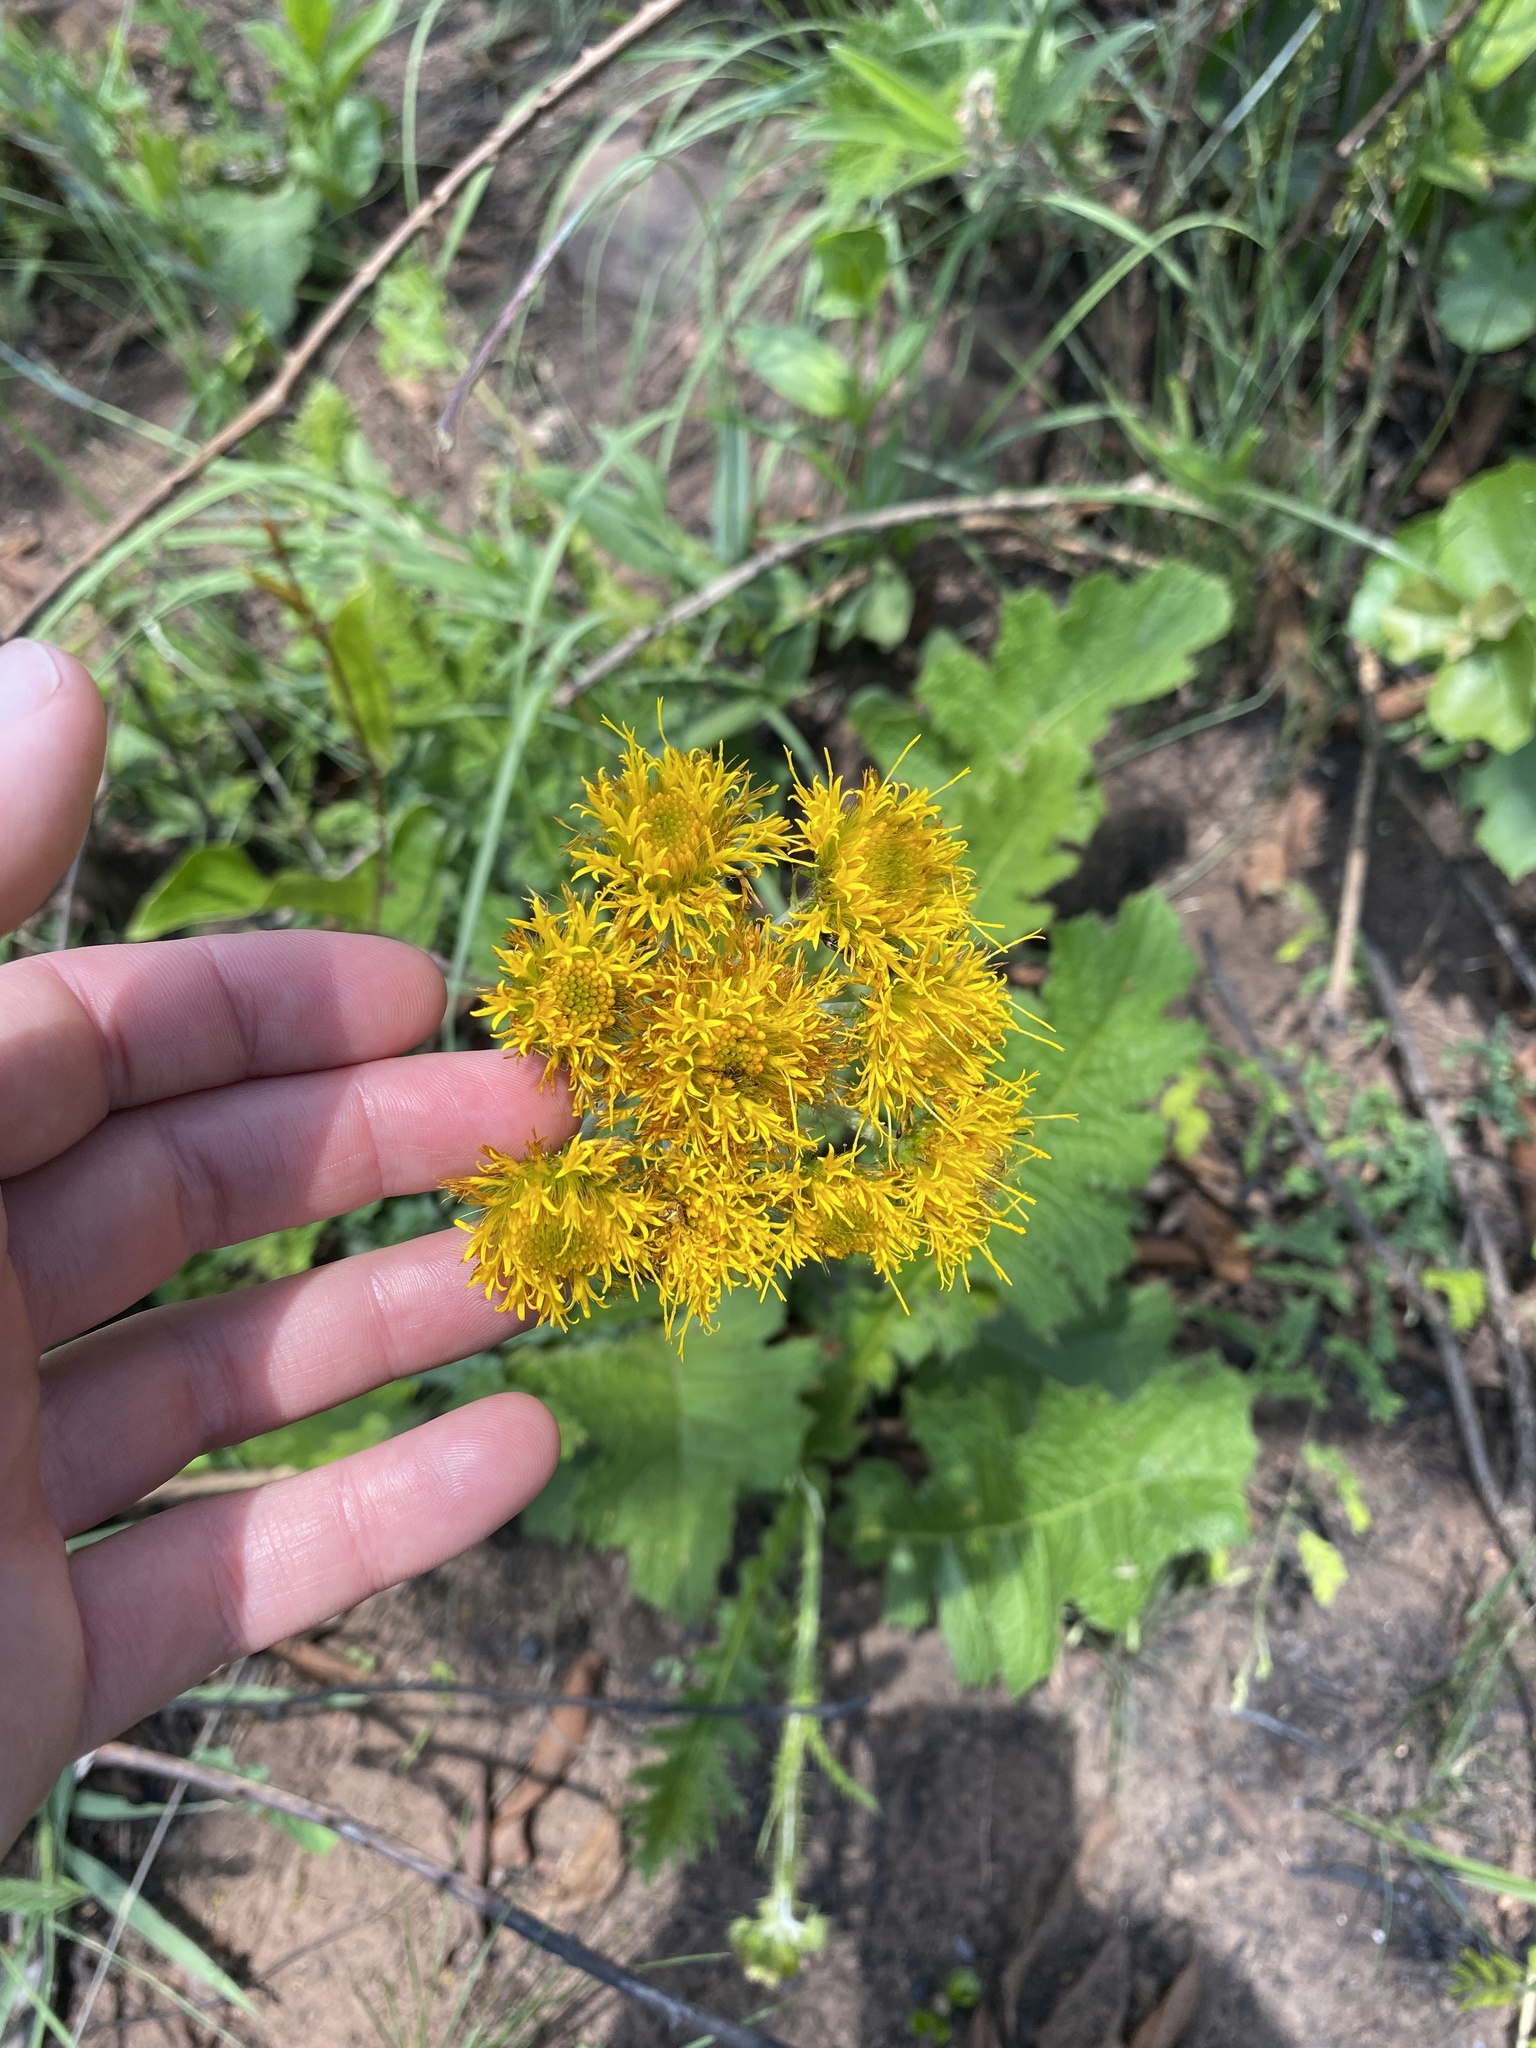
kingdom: Plantae
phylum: Tracheophyta
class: Magnoliopsida
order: Asterales
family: Asteraceae
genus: Berkheya
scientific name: Berkheya umbellata
